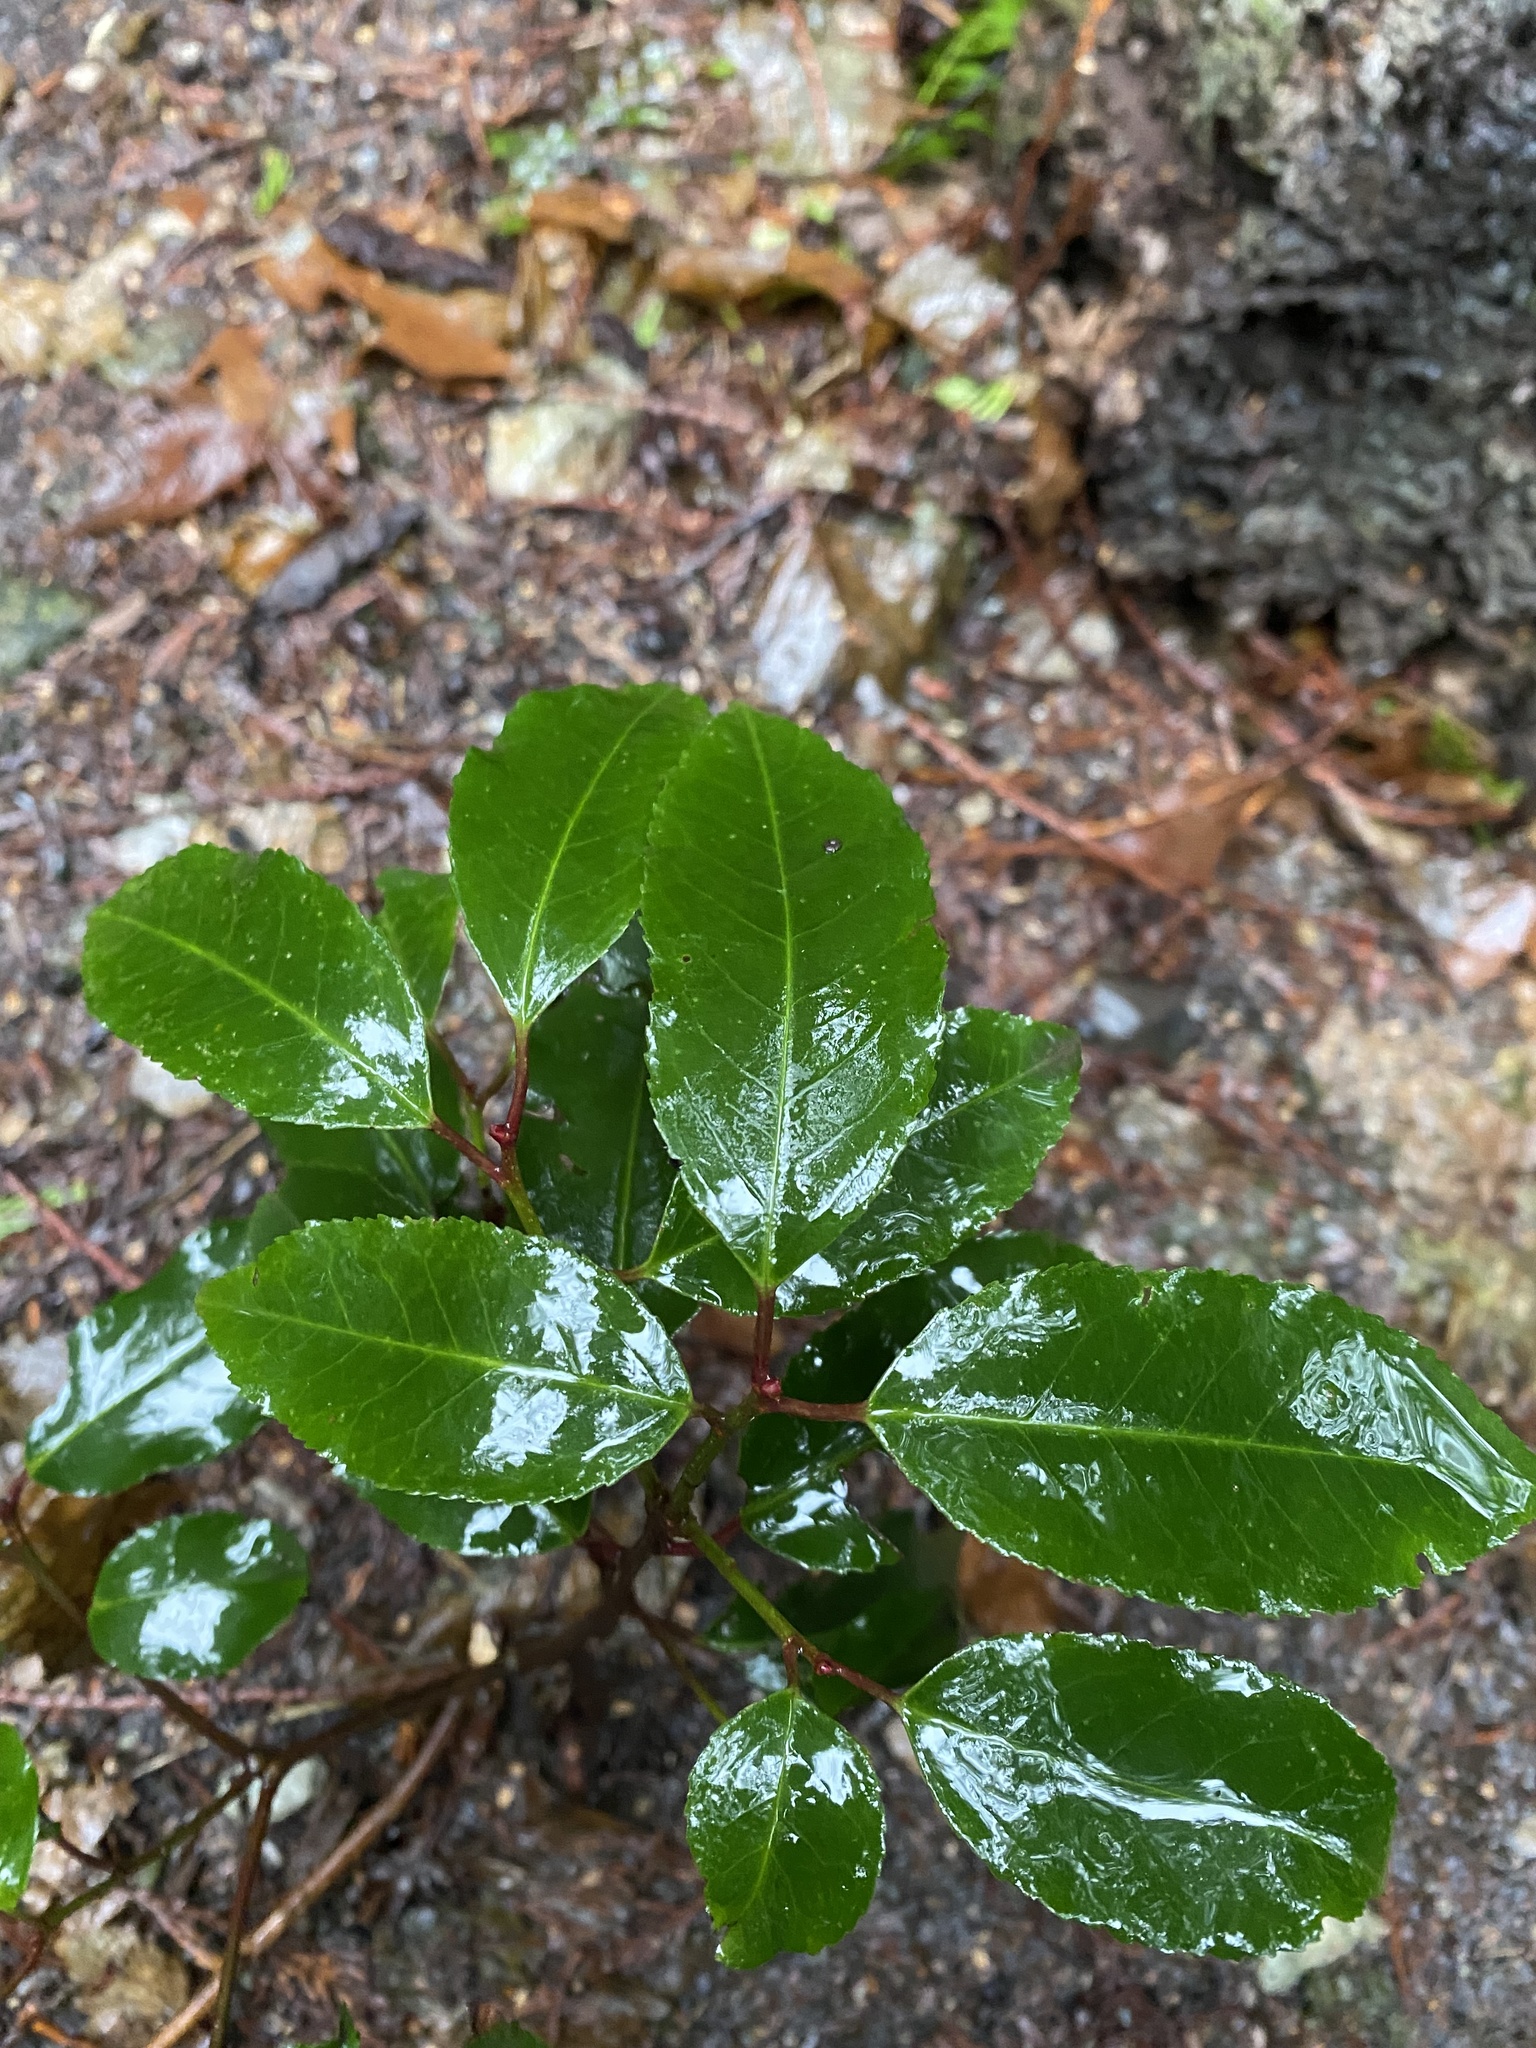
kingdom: Plantae
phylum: Tracheophyta
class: Magnoliopsida
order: Rosales
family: Rosaceae
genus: Prunus
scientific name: Prunus lusitanica
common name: Portugal laurel
